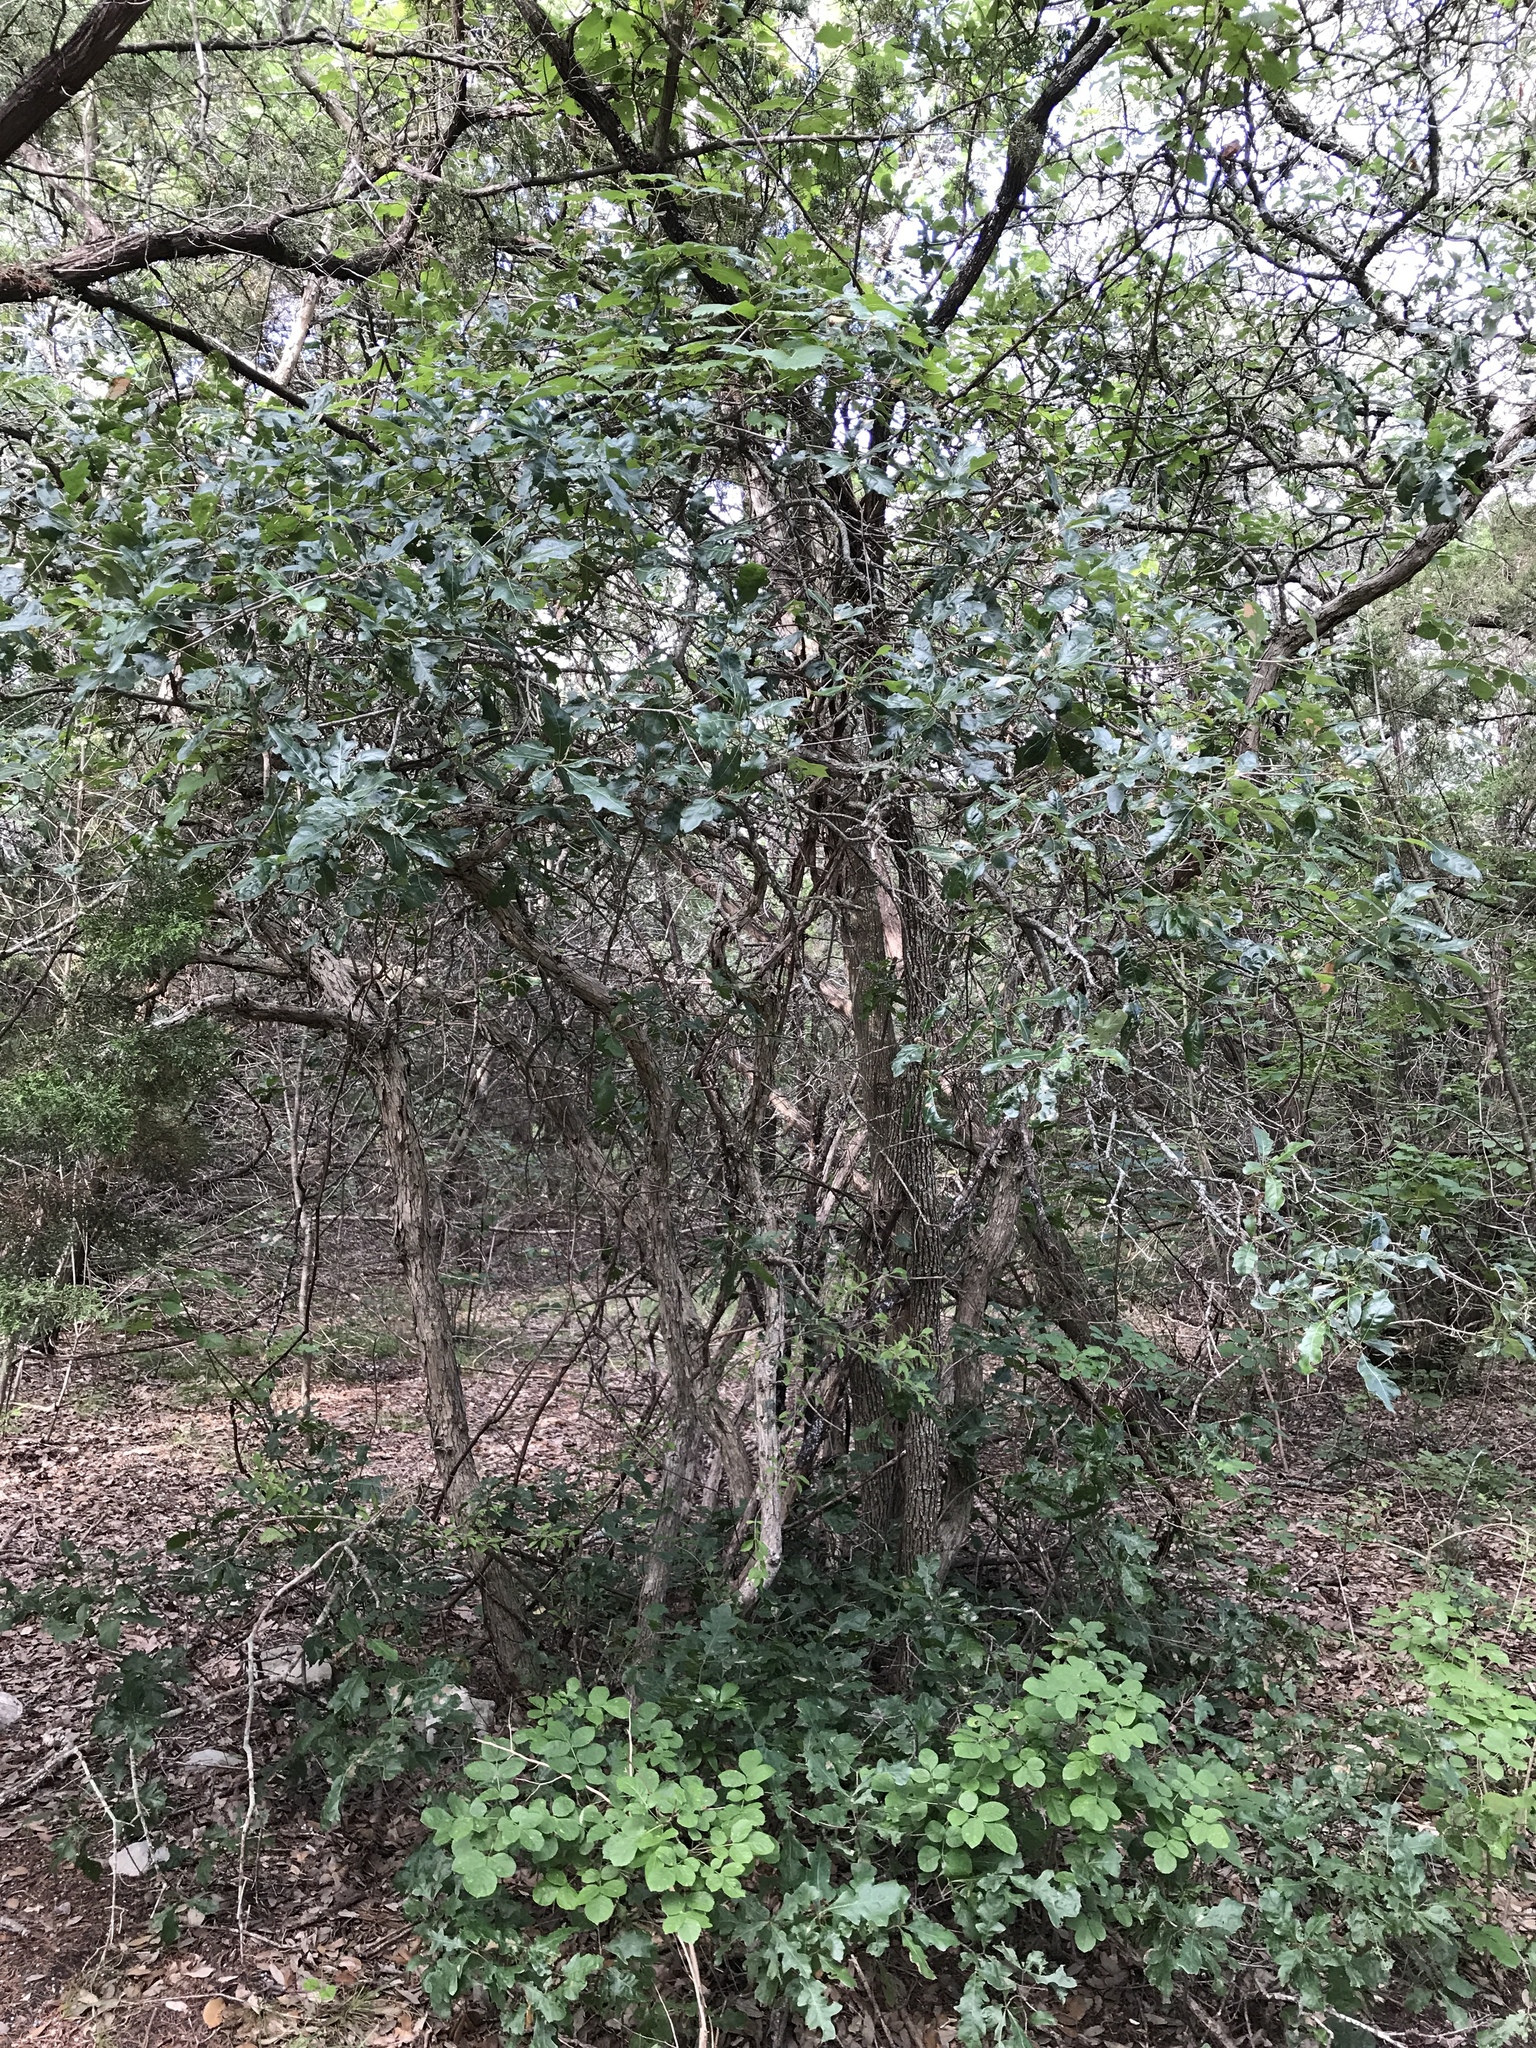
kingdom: Plantae
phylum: Tracheophyta
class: Magnoliopsida
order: Fagales
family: Fagaceae
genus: Quercus
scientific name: Quercus sinuata
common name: Durand oak
